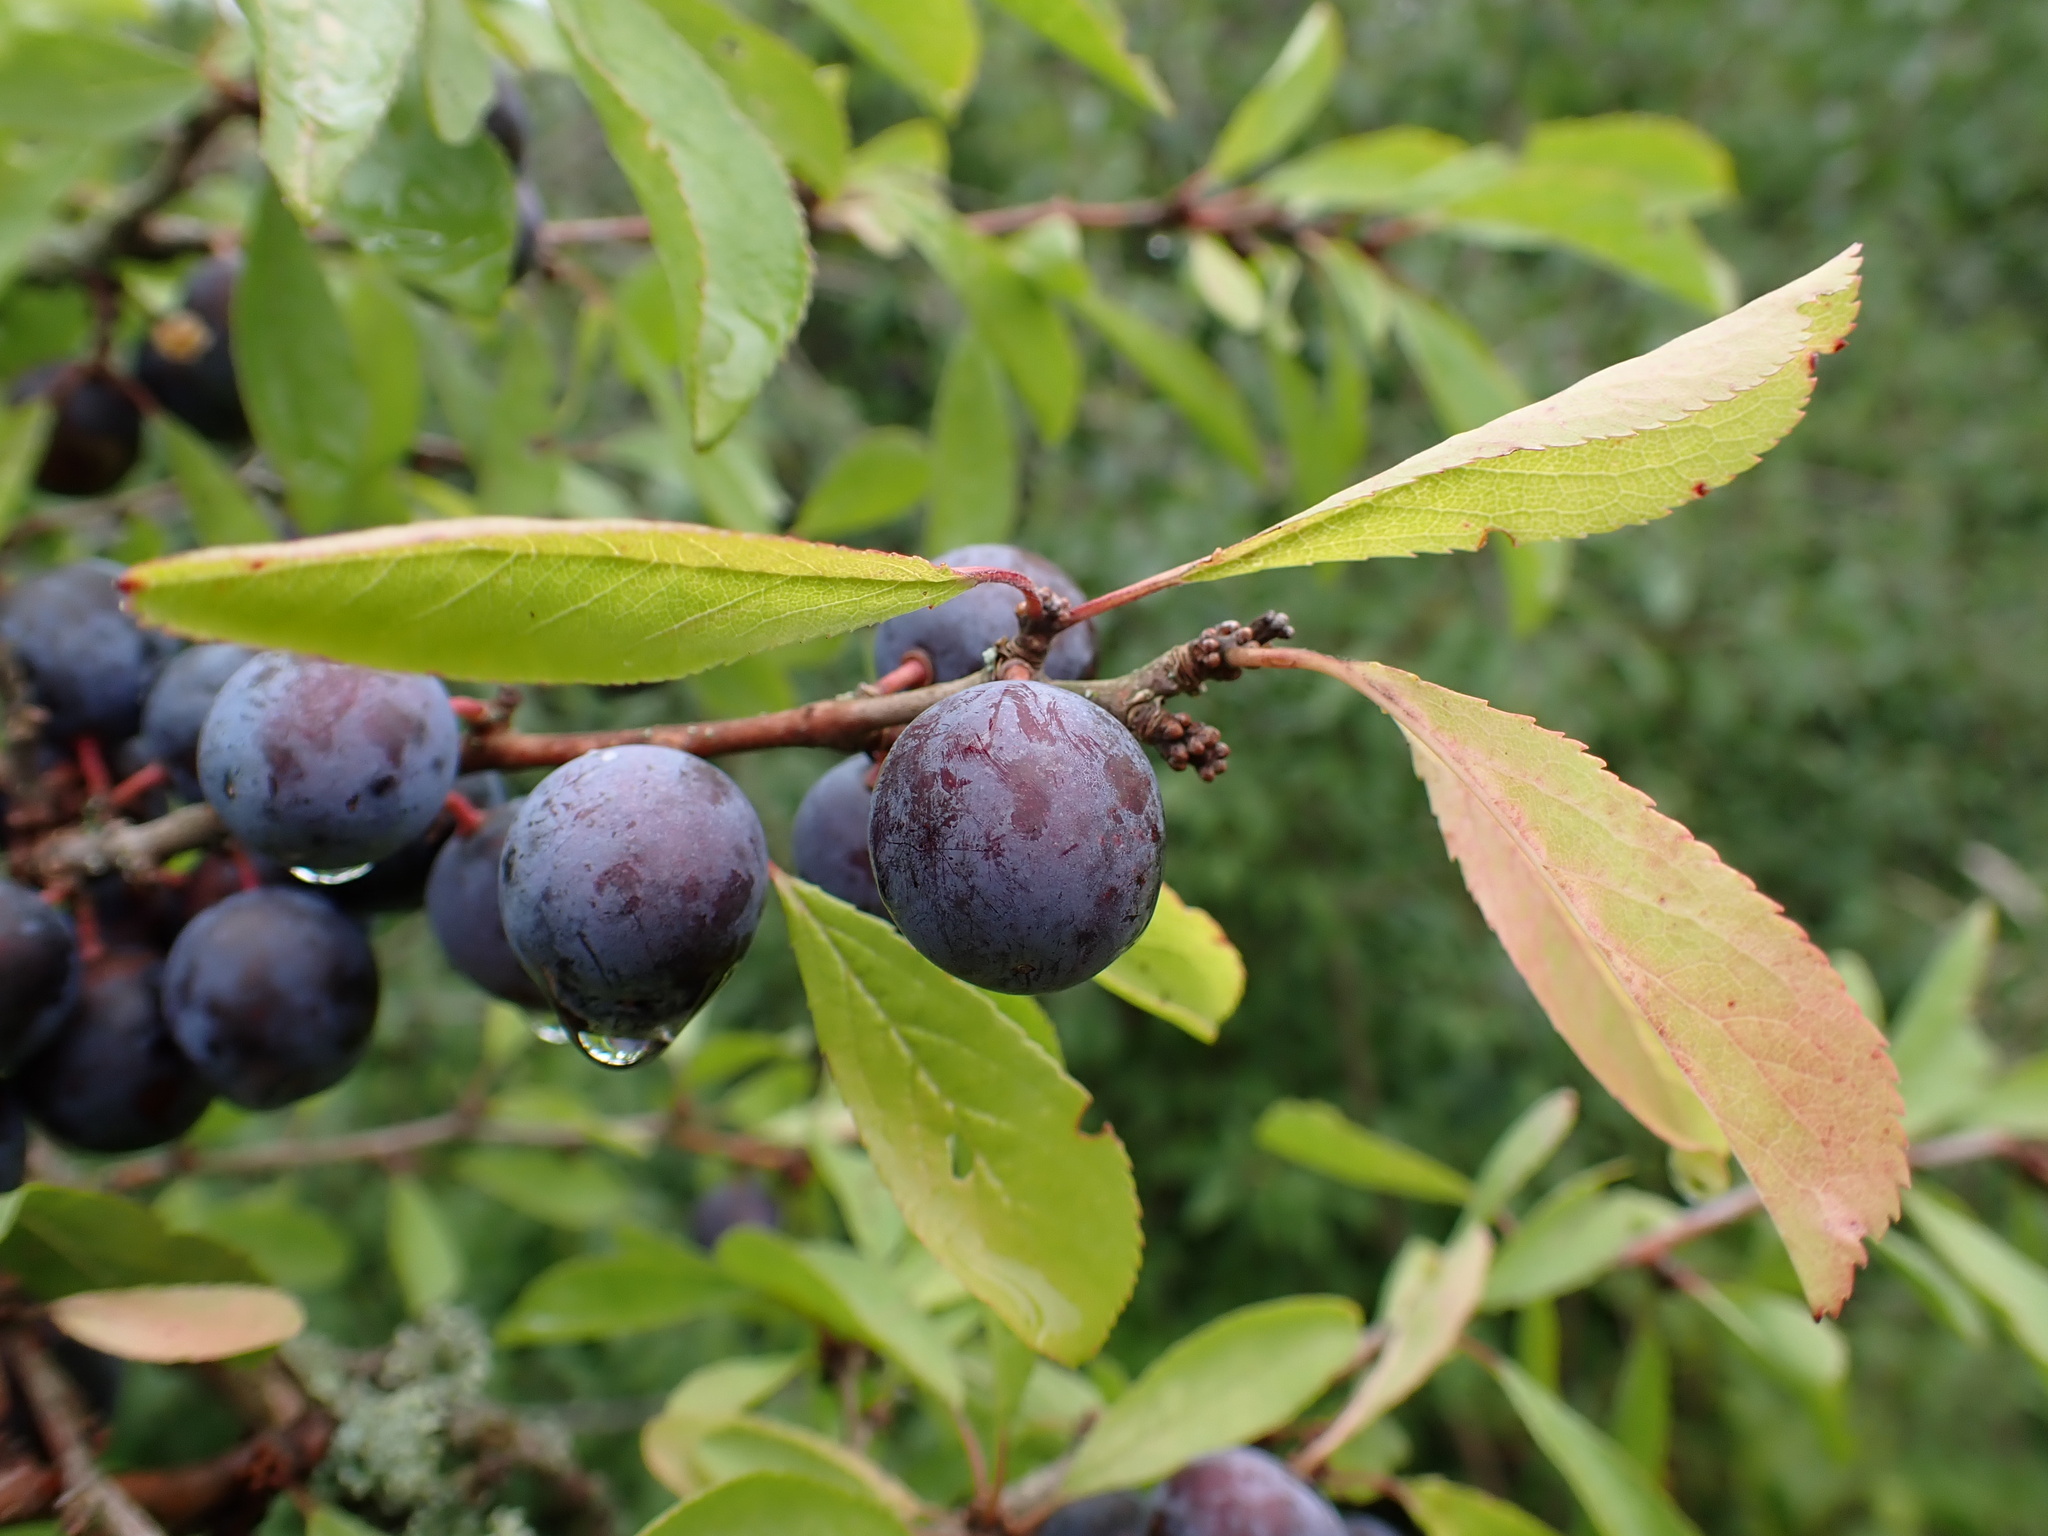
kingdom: Plantae
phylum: Tracheophyta
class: Magnoliopsida
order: Rosales
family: Rosaceae
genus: Prunus
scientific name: Prunus spinosa
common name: Blackthorn
